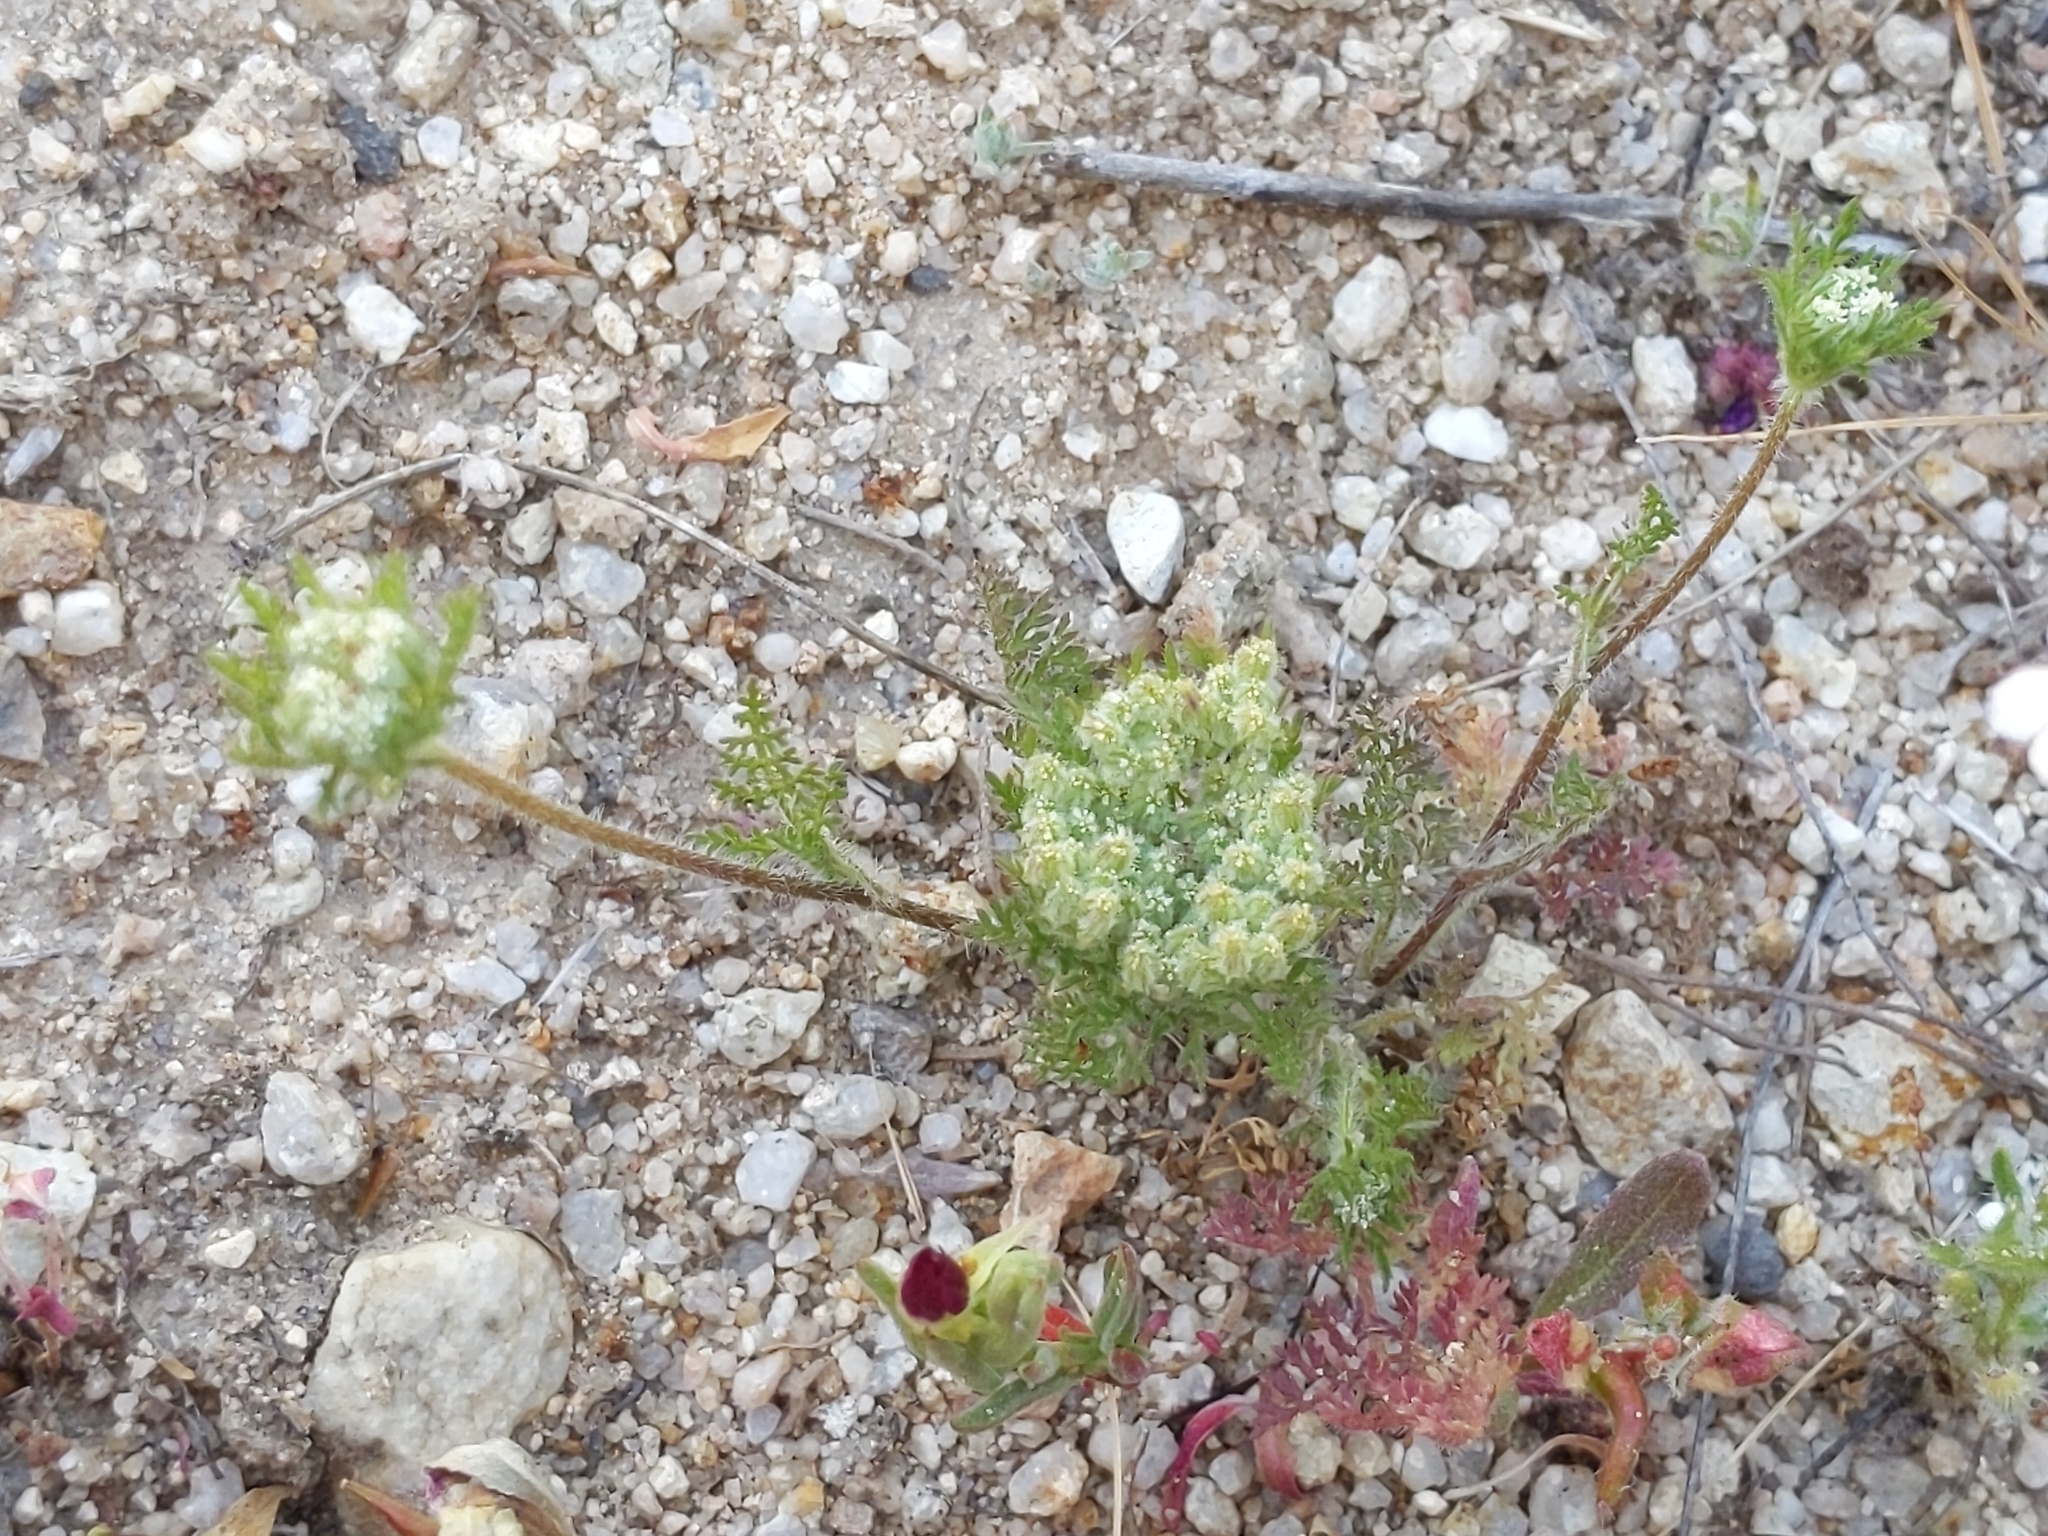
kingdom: Plantae
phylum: Tracheophyta
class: Magnoliopsida
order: Apiales
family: Apiaceae
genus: Daucus
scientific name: Daucus pusillus
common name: Southwest wild carrot
